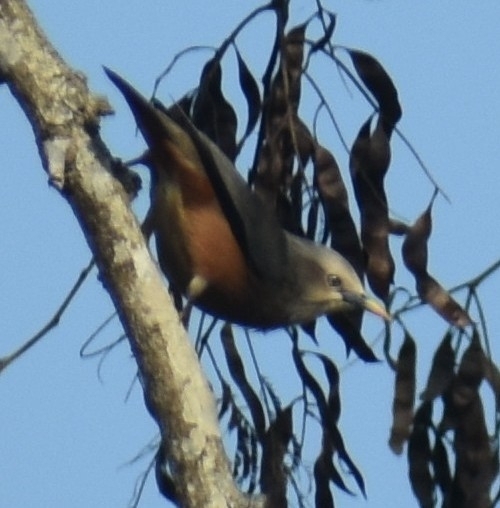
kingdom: Animalia
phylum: Chordata
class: Aves
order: Passeriformes
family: Sturnidae
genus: Sturnia
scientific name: Sturnia malabarica
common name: Chestnut-tailed starling
